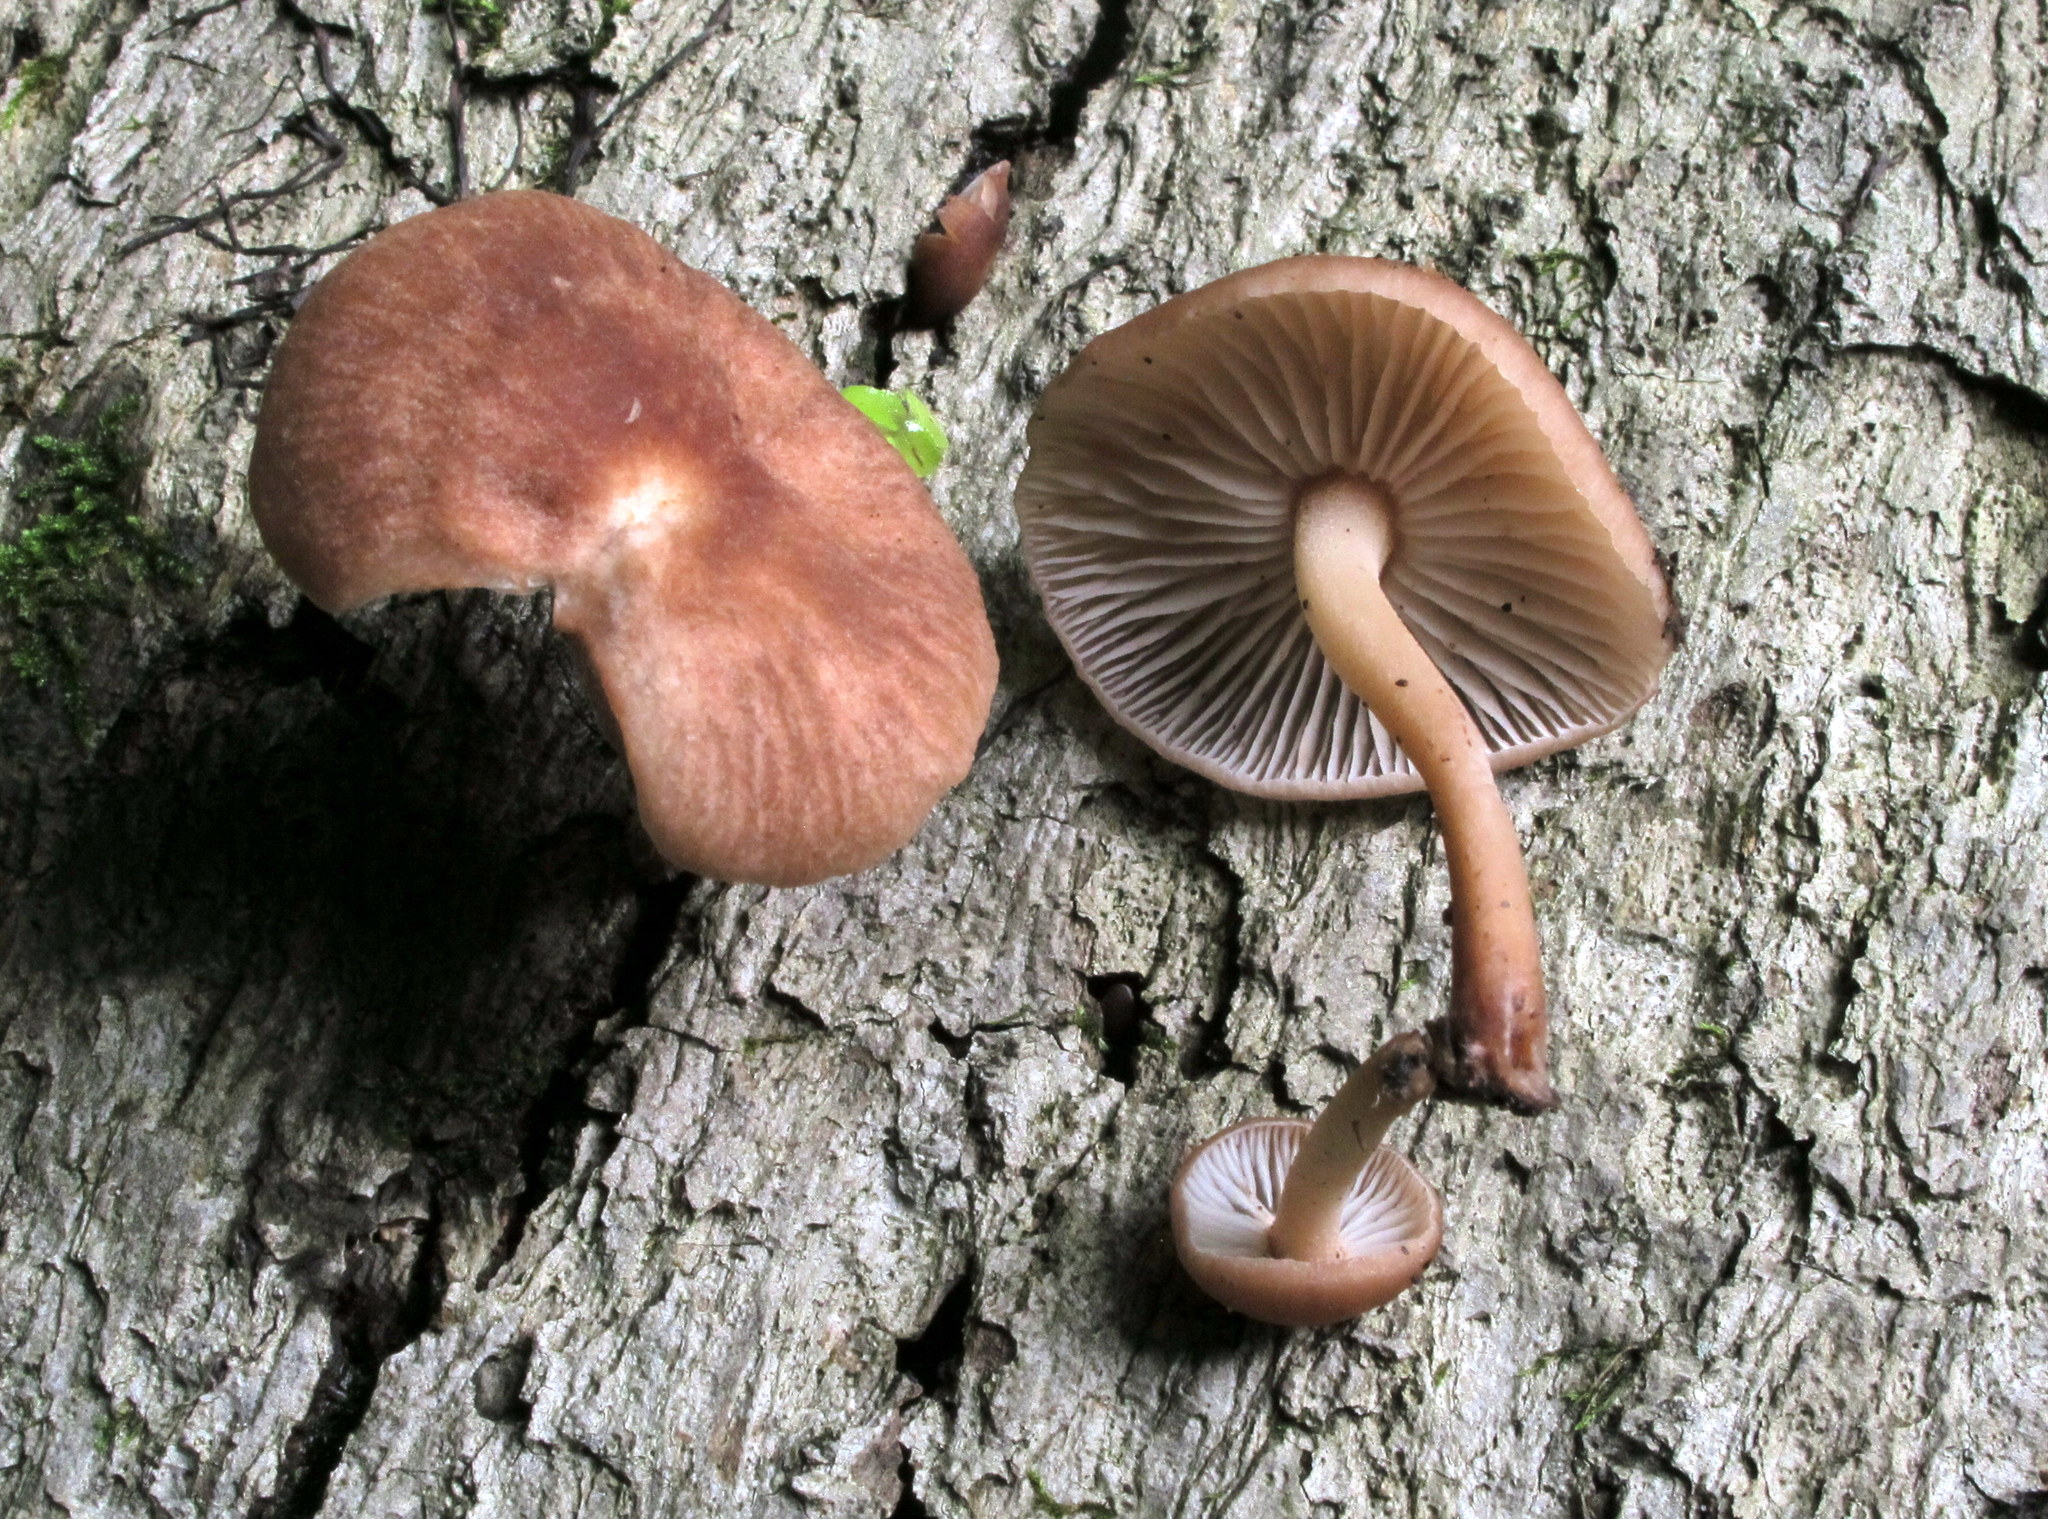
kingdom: Fungi
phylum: Basidiomycota
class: Agaricomycetes
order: Agaricales
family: Omphalotaceae
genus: Collybiopsis
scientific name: Collybiopsis dichroa
